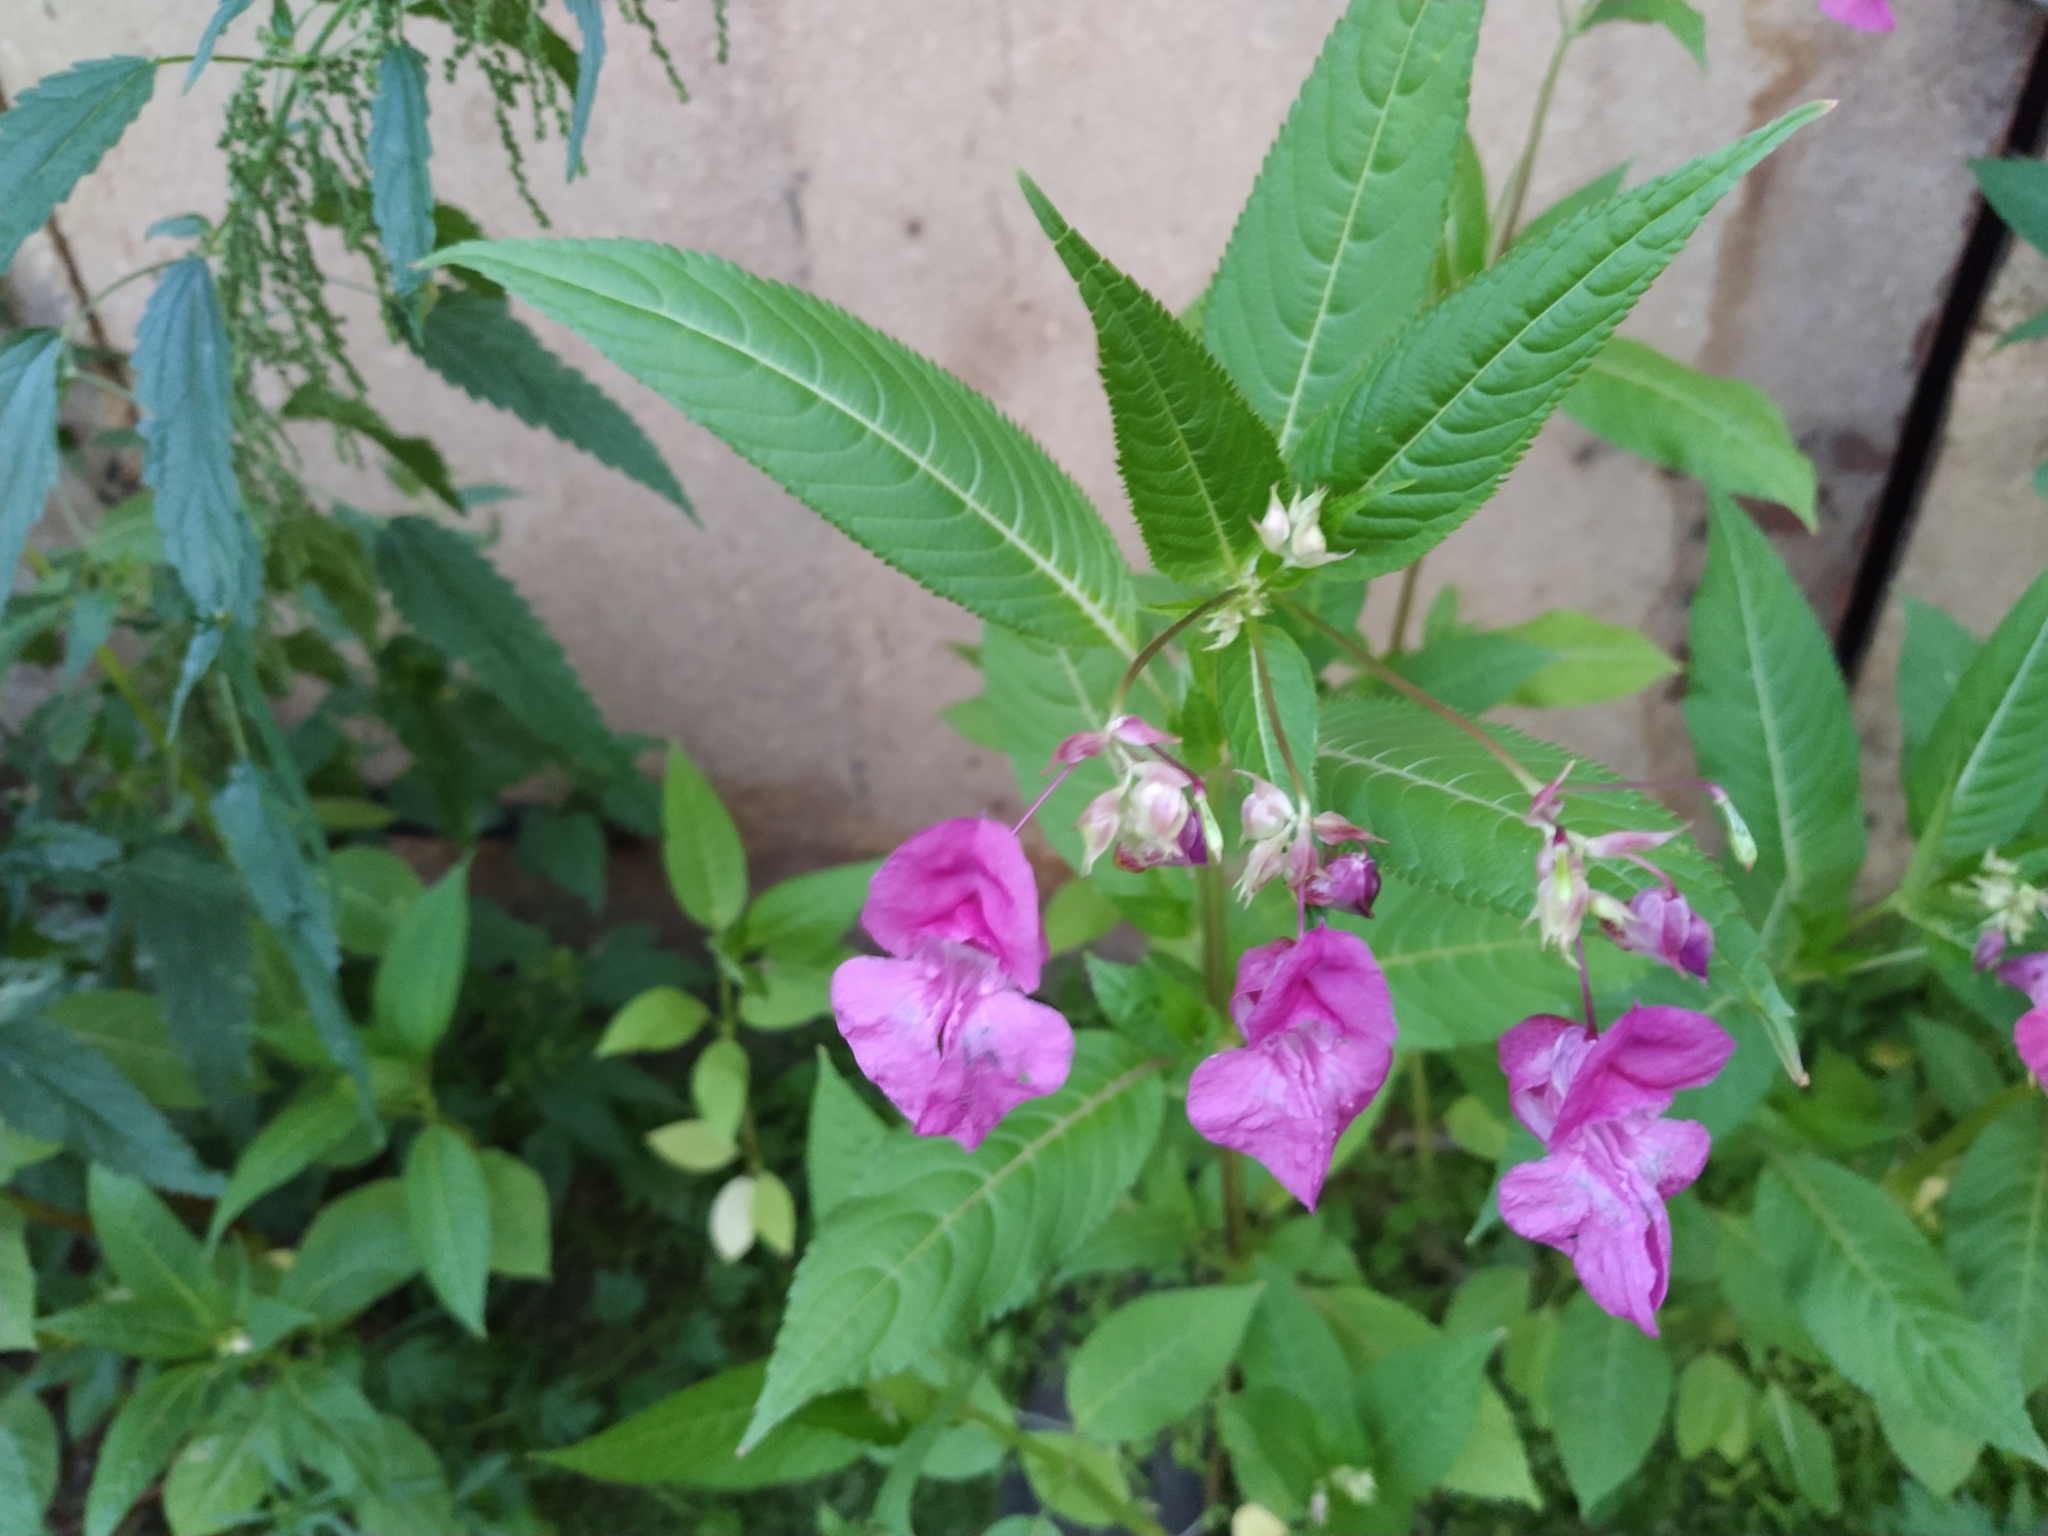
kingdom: Plantae
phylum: Tracheophyta
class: Magnoliopsida
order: Ericales
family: Balsaminaceae
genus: Impatiens
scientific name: Impatiens glandulifera
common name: Himalayan balsam
